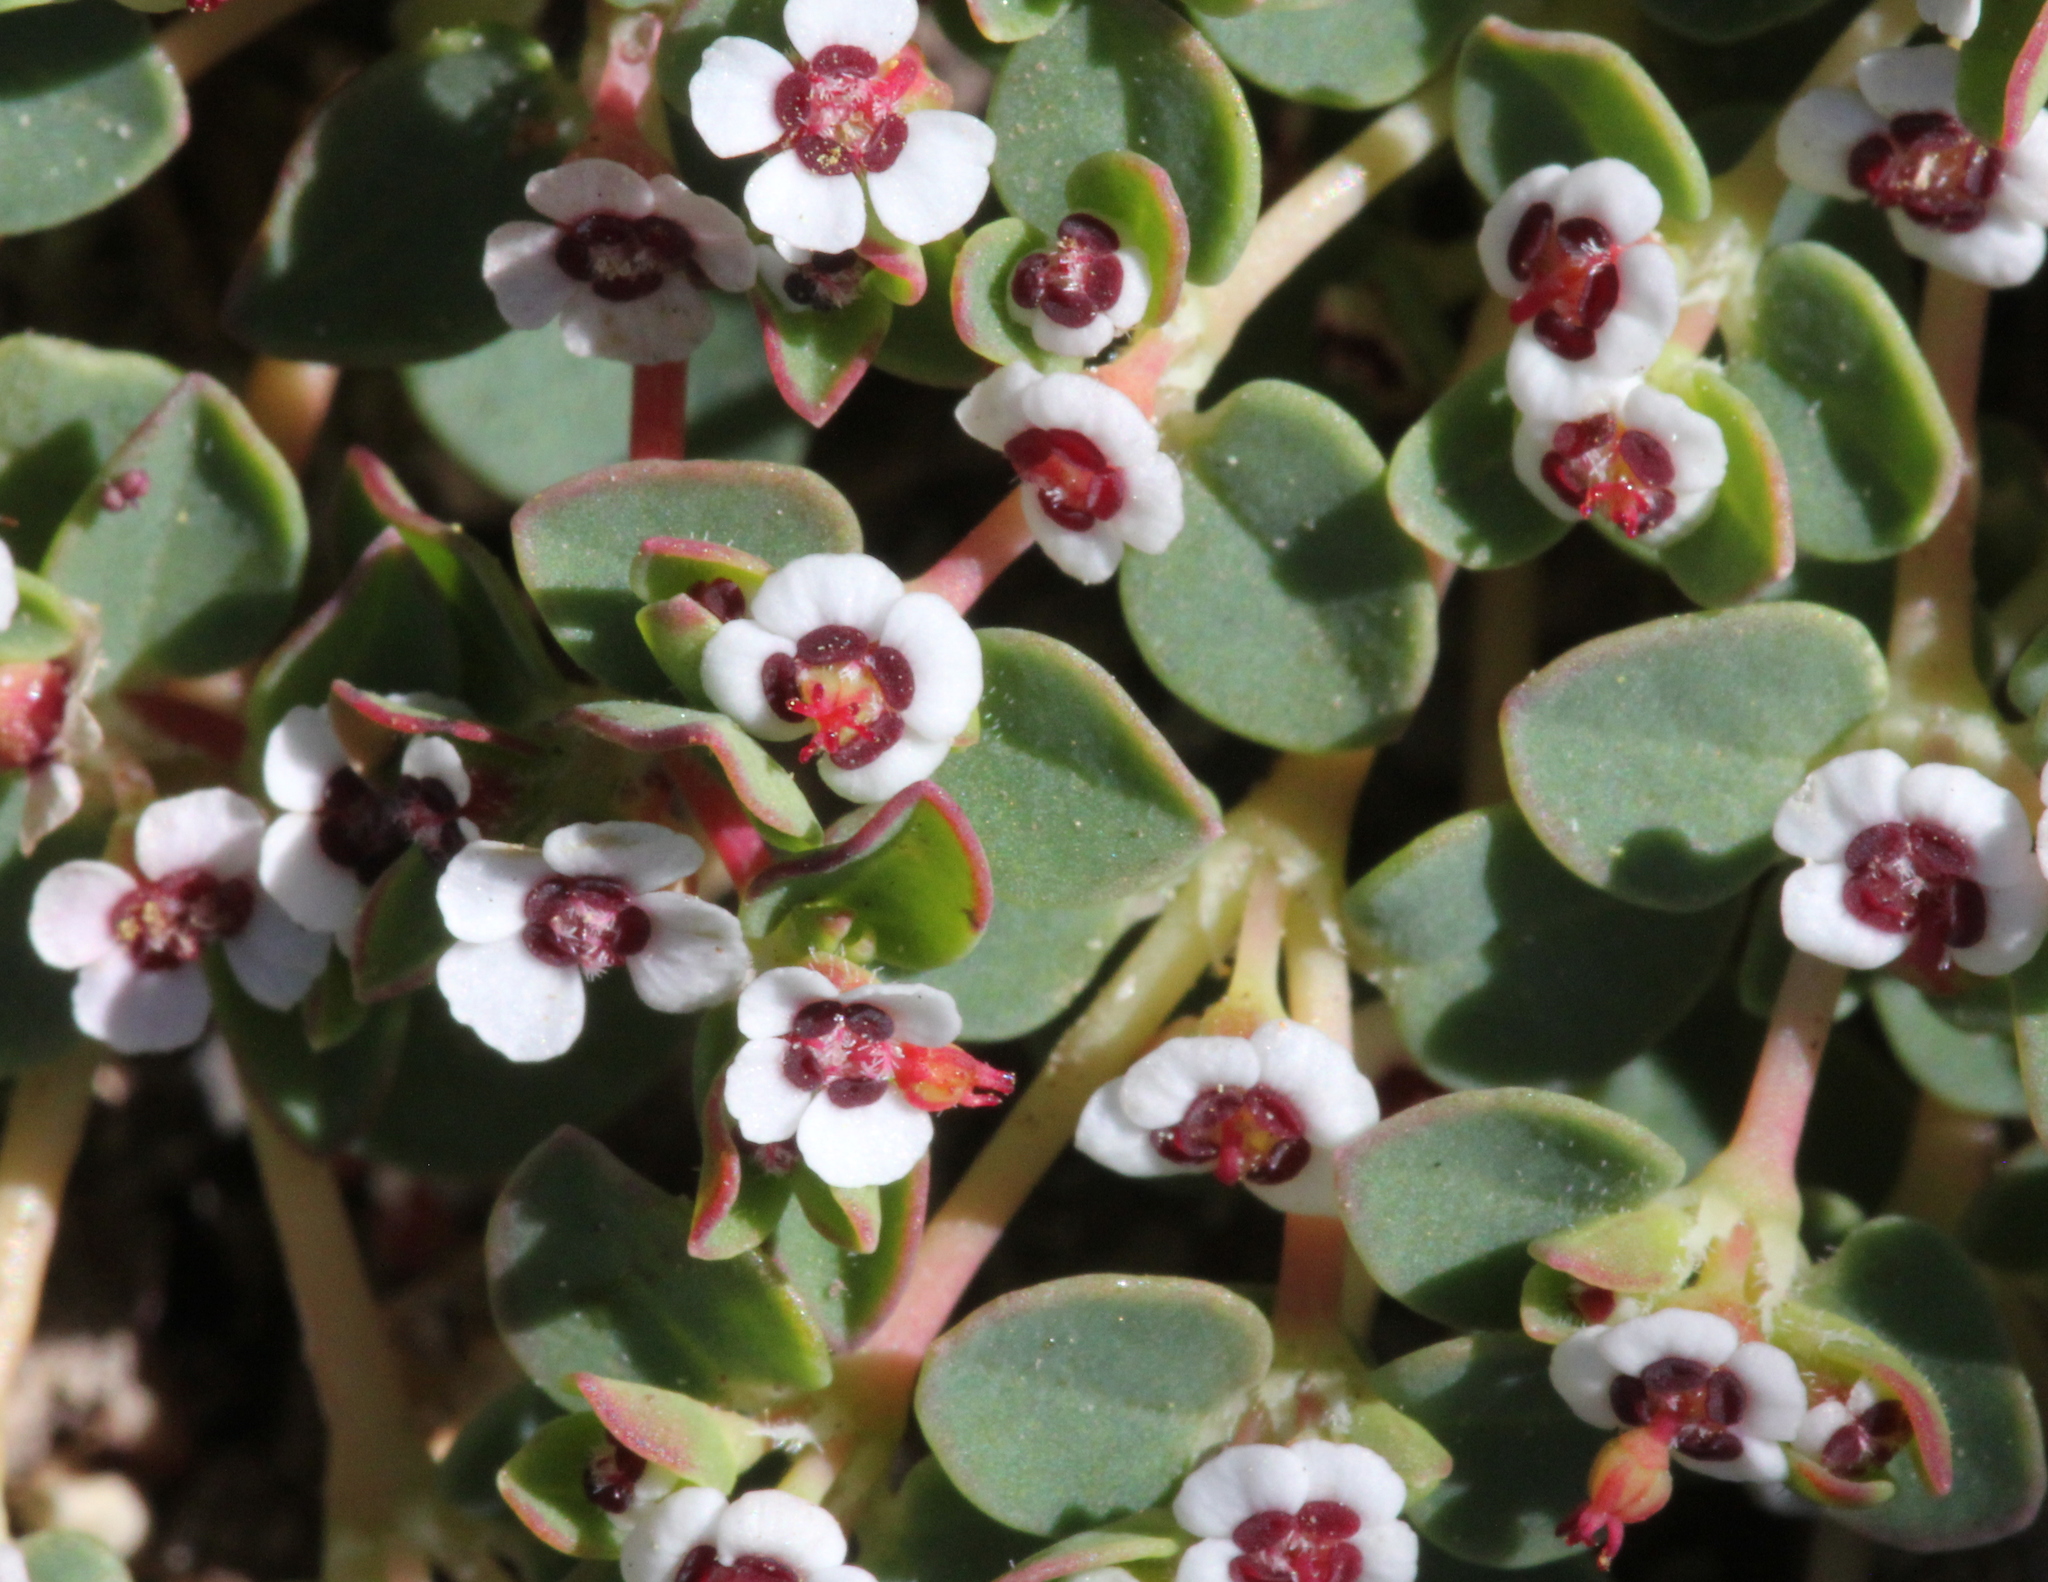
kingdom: Plantae
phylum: Tracheophyta
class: Magnoliopsida
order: Malpighiales
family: Euphorbiaceae
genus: Euphorbia
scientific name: Euphorbia polycarpa
